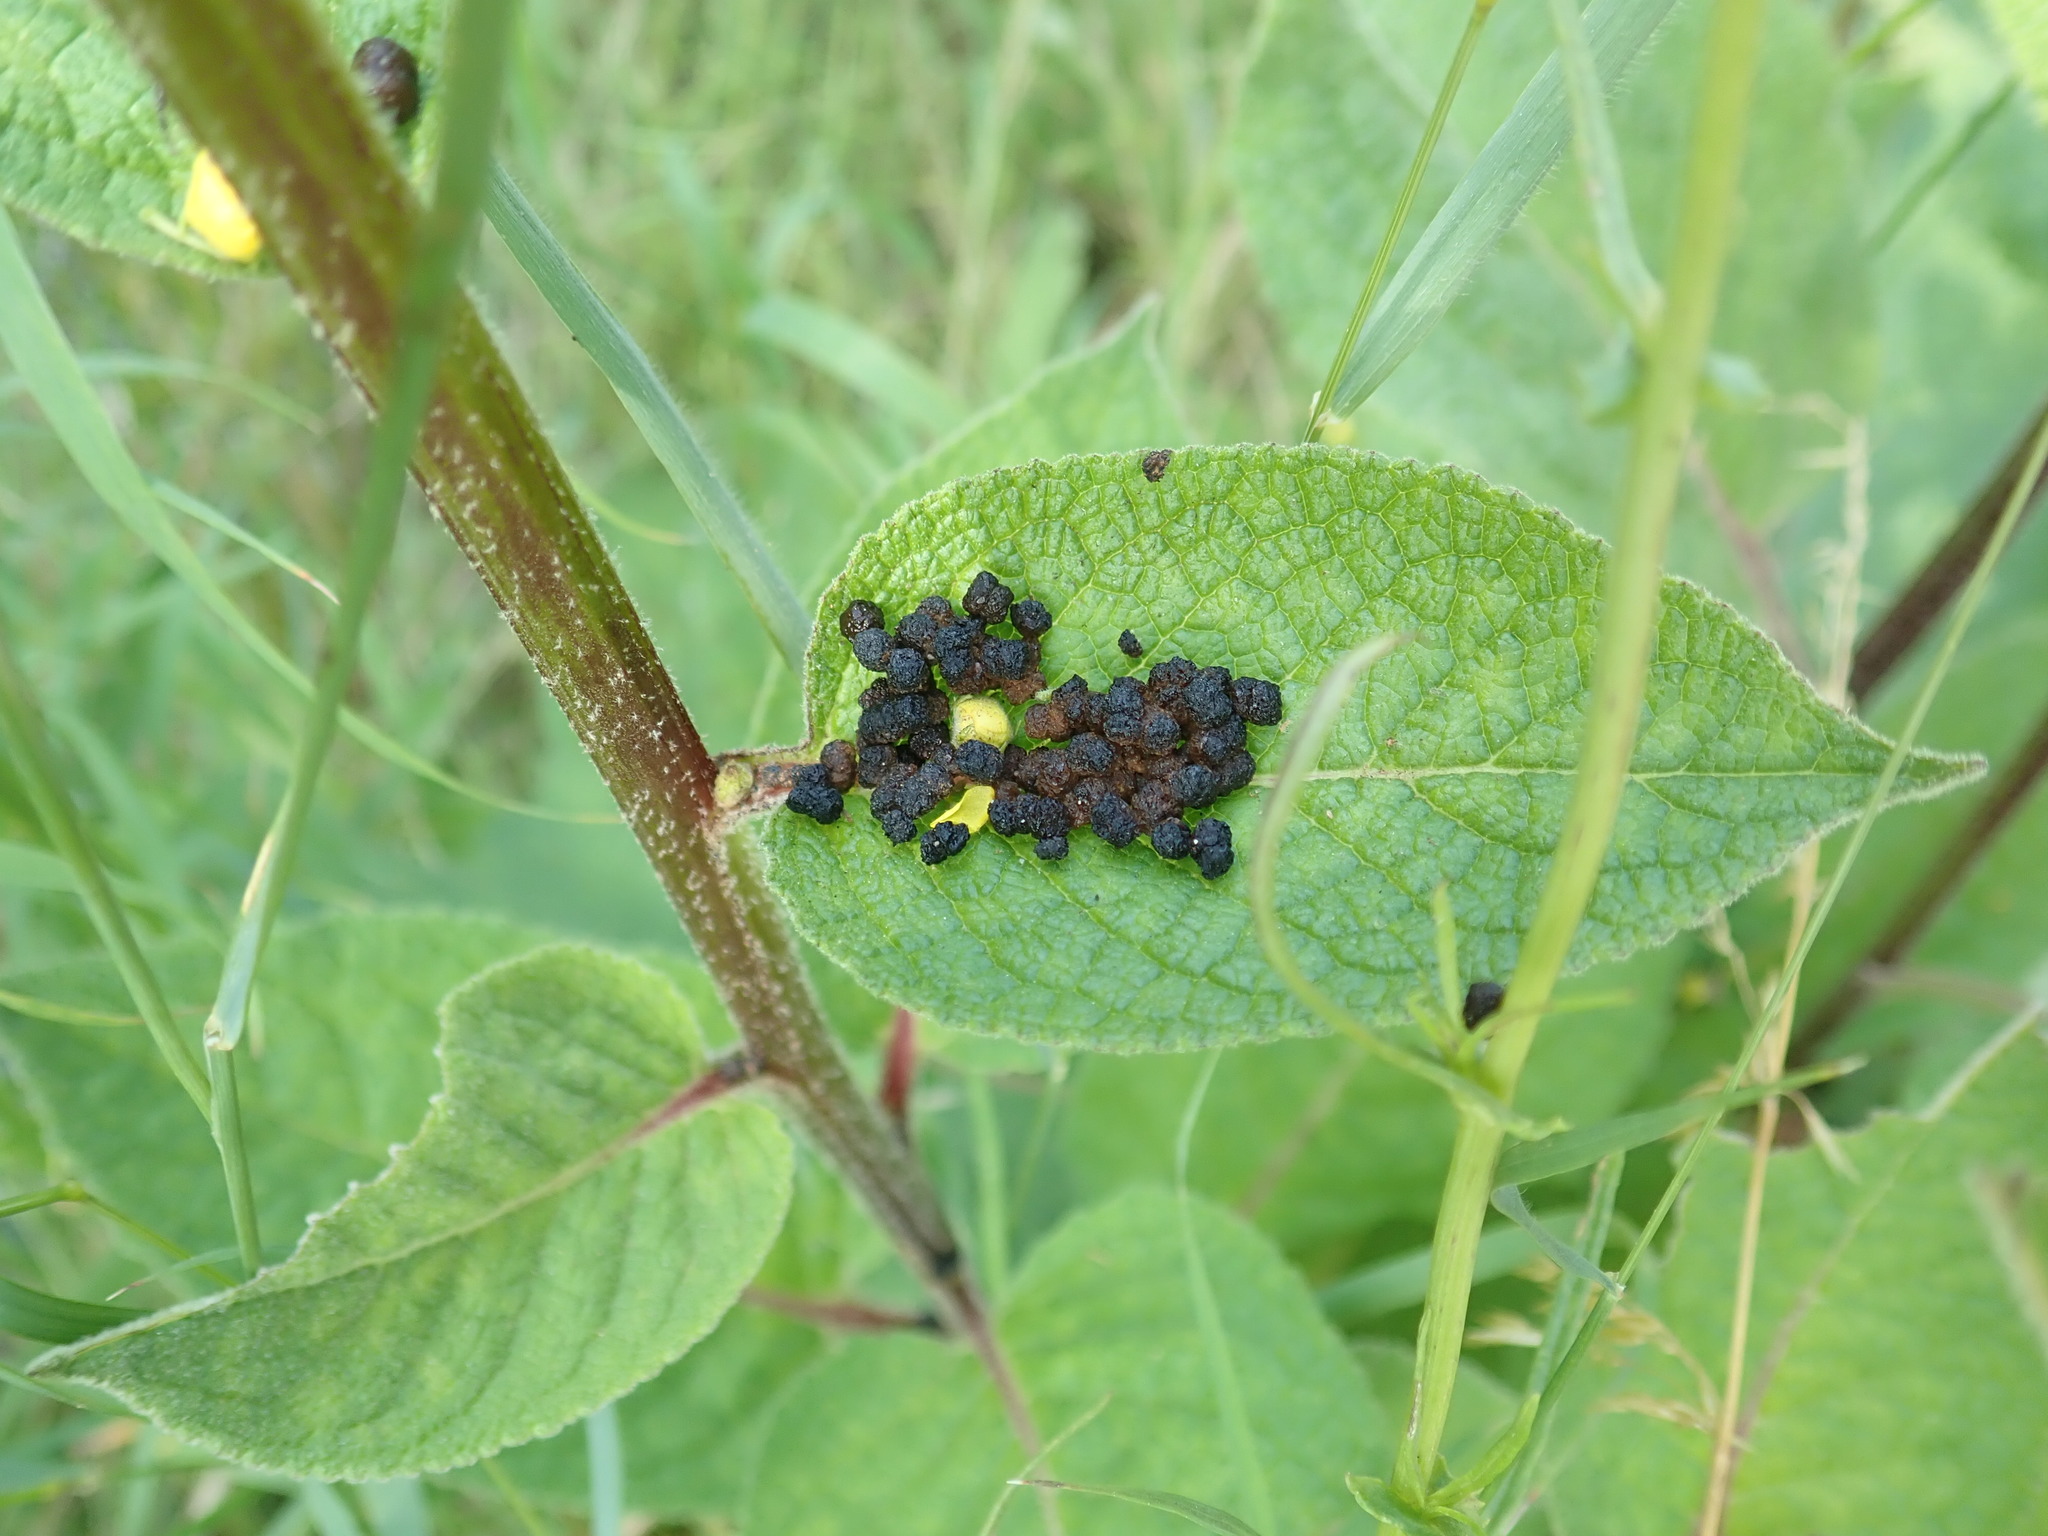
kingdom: Animalia
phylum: Arthropoda
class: Insecta
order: Lepidoptera
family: Noctuidae
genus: Cucullia
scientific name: Cucullia verbasci
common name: Mullein
